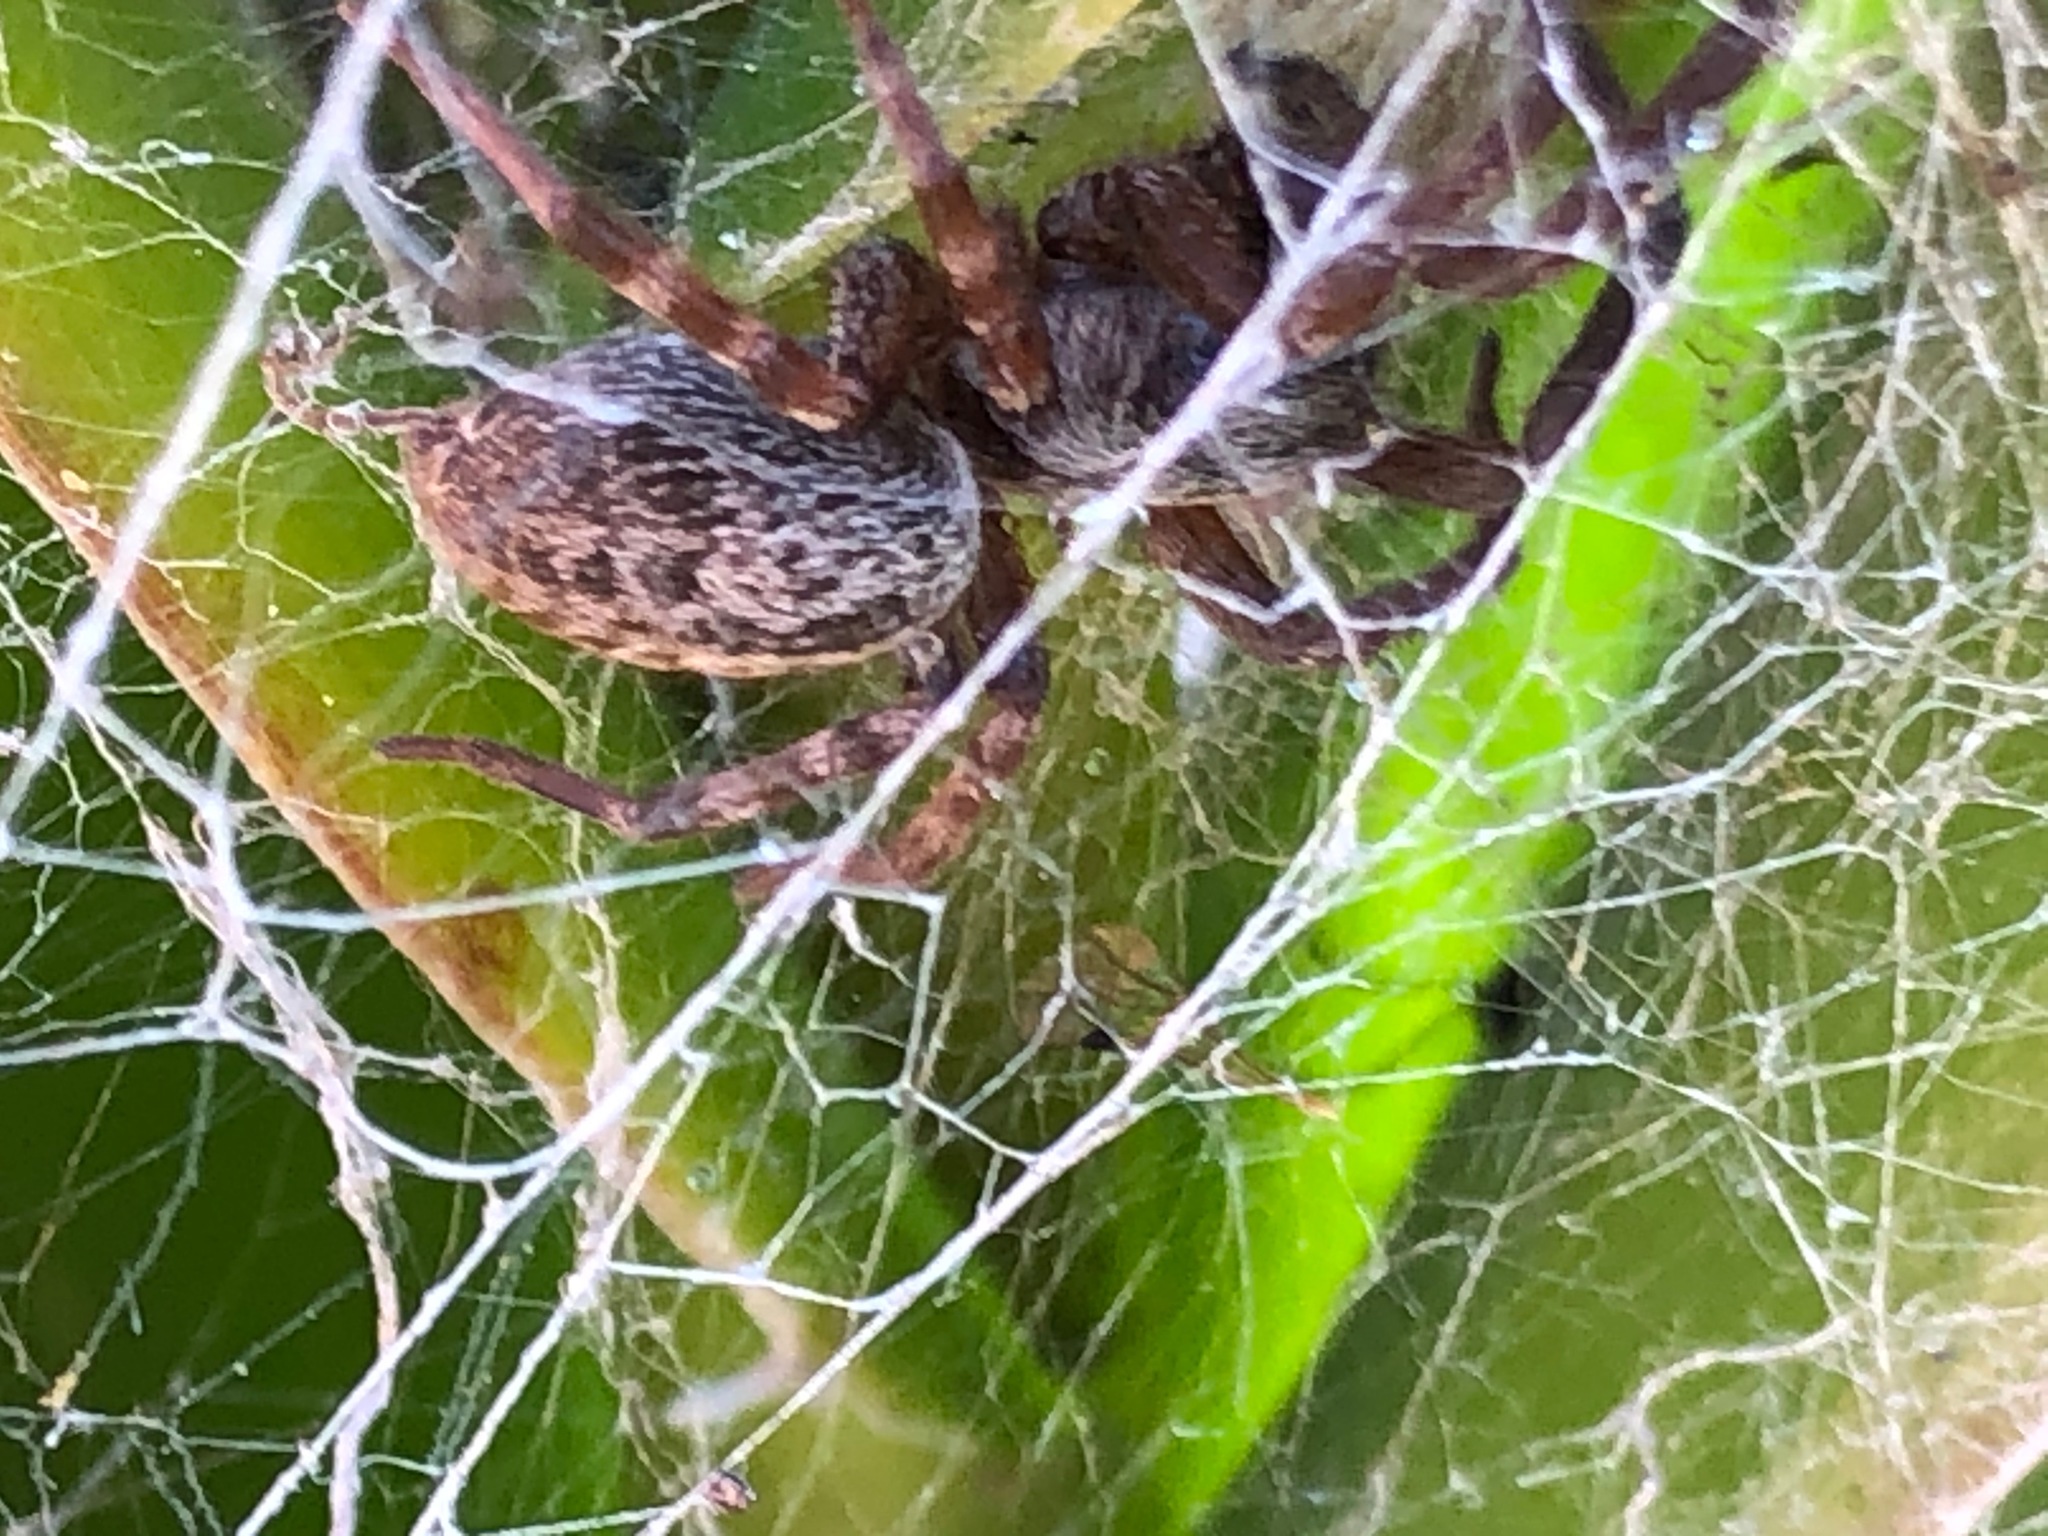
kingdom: Animalia
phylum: Arthropoda
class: Arachnida
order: Araneae
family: Desidae
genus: Badumna
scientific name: Badumna longinqua
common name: Gray house spider
